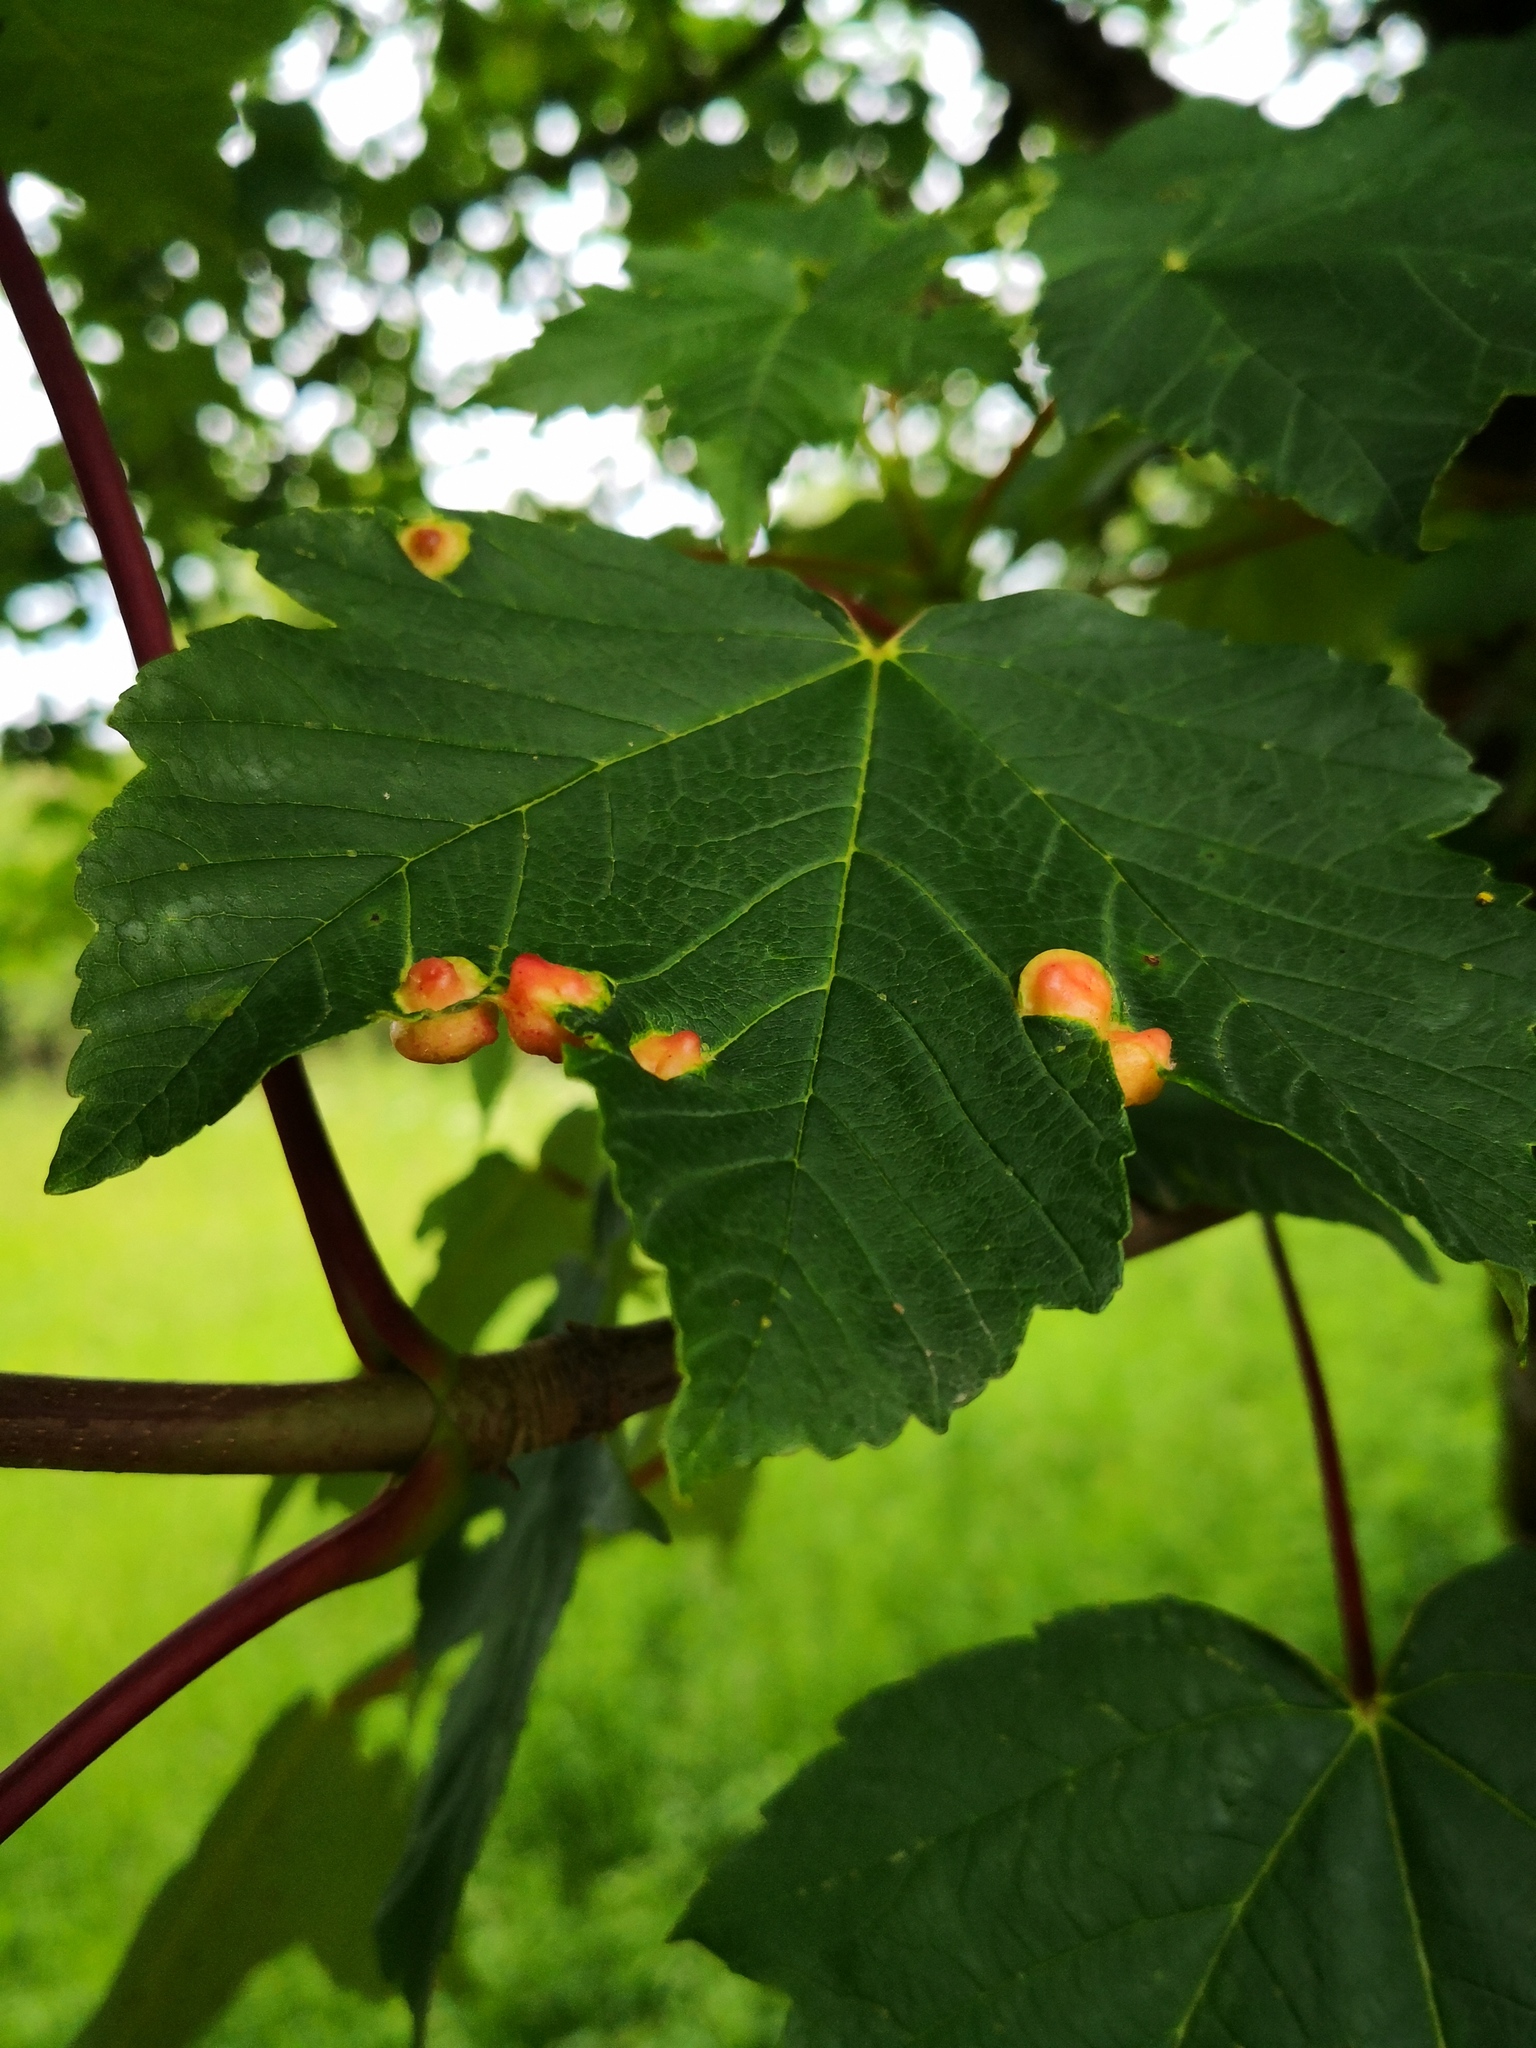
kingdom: Animalia
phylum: Arthropoda
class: Insecta
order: Hymenoptera
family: Cynipidae
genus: Pediaspis
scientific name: Pediaspis aceris
